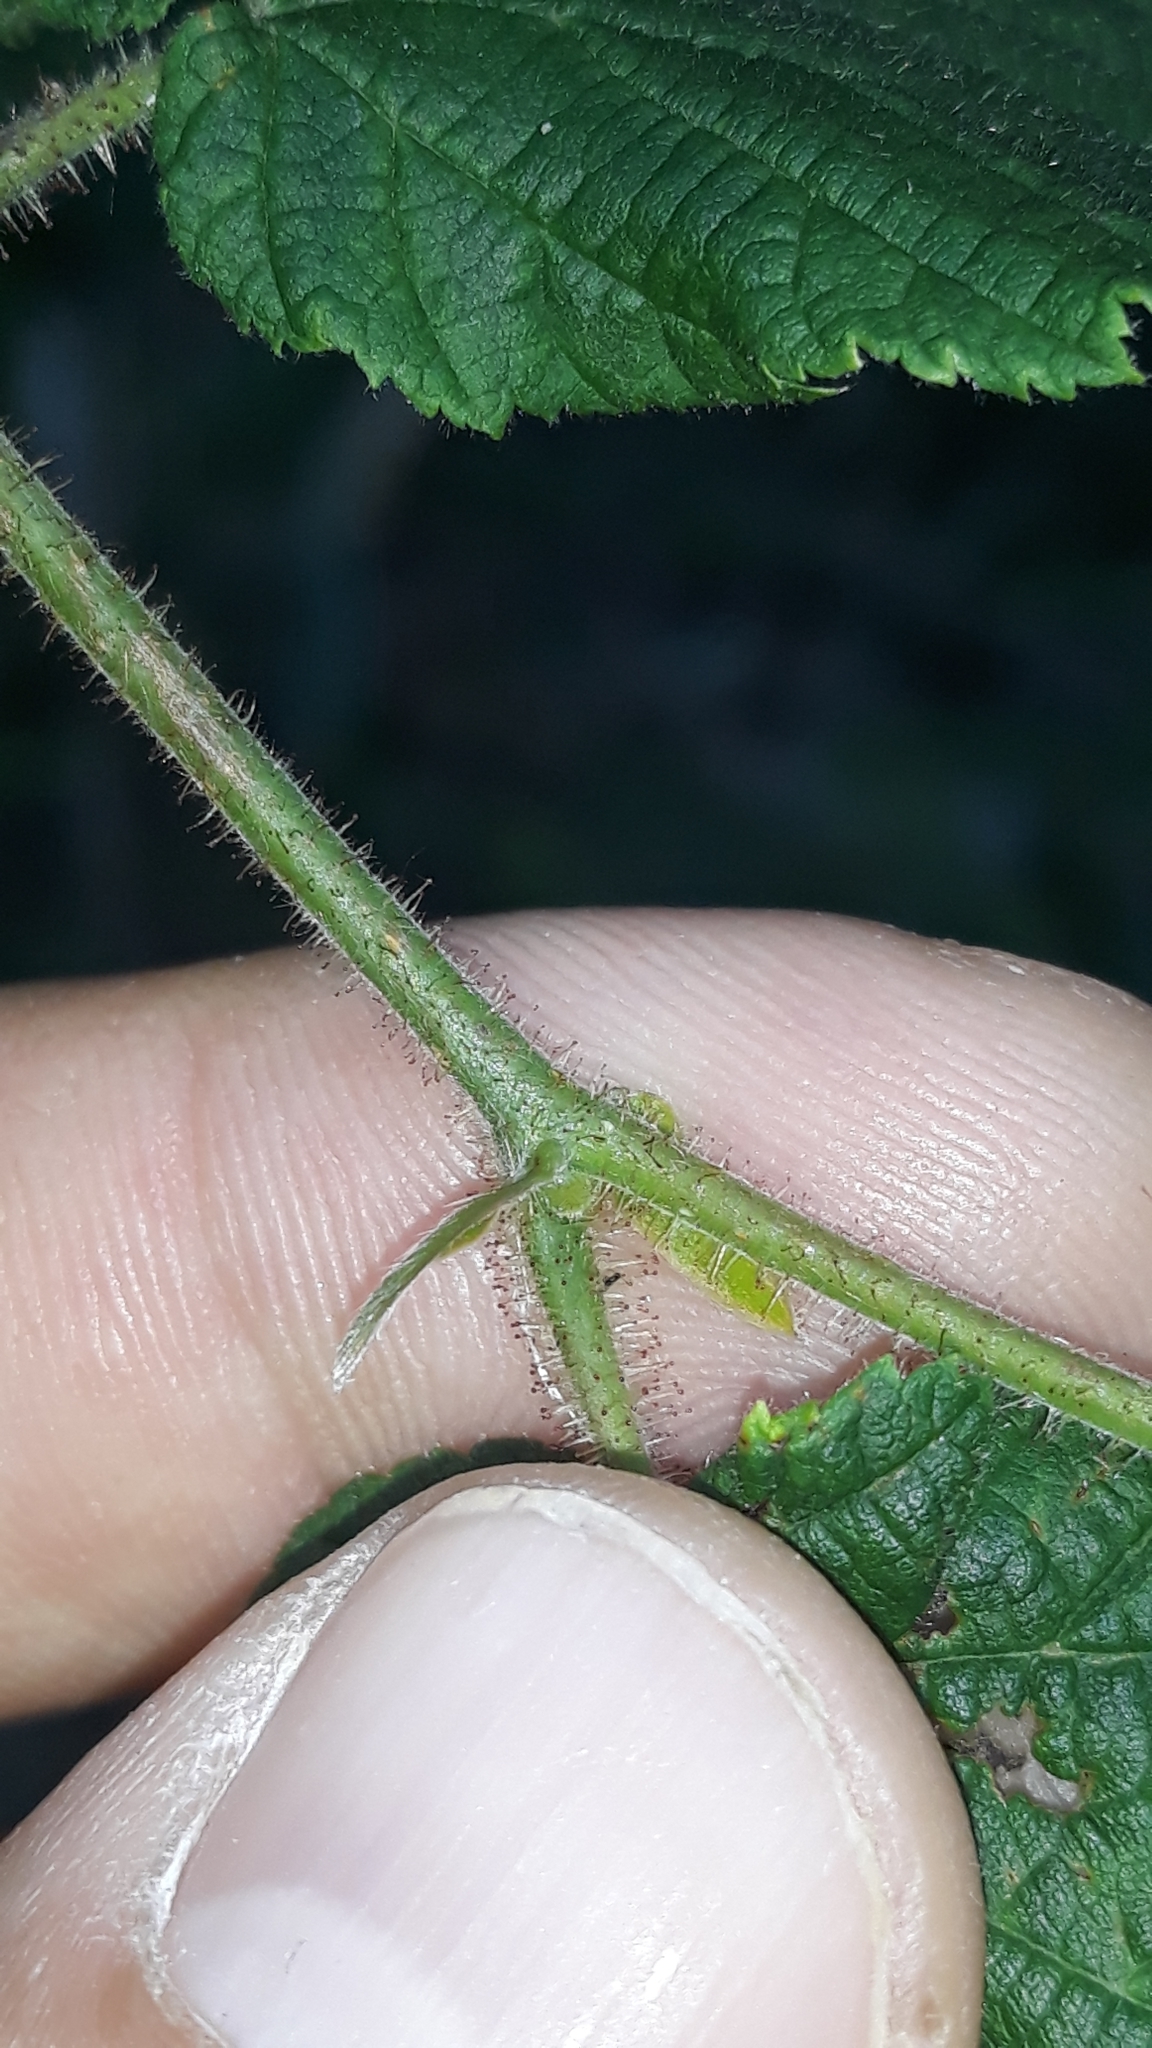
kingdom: Plantae
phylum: Tracheophyta
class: Magnoliopsida
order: Fagales
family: Betulaceae
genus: Corylus
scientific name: Corylus avellana
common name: European hazel
